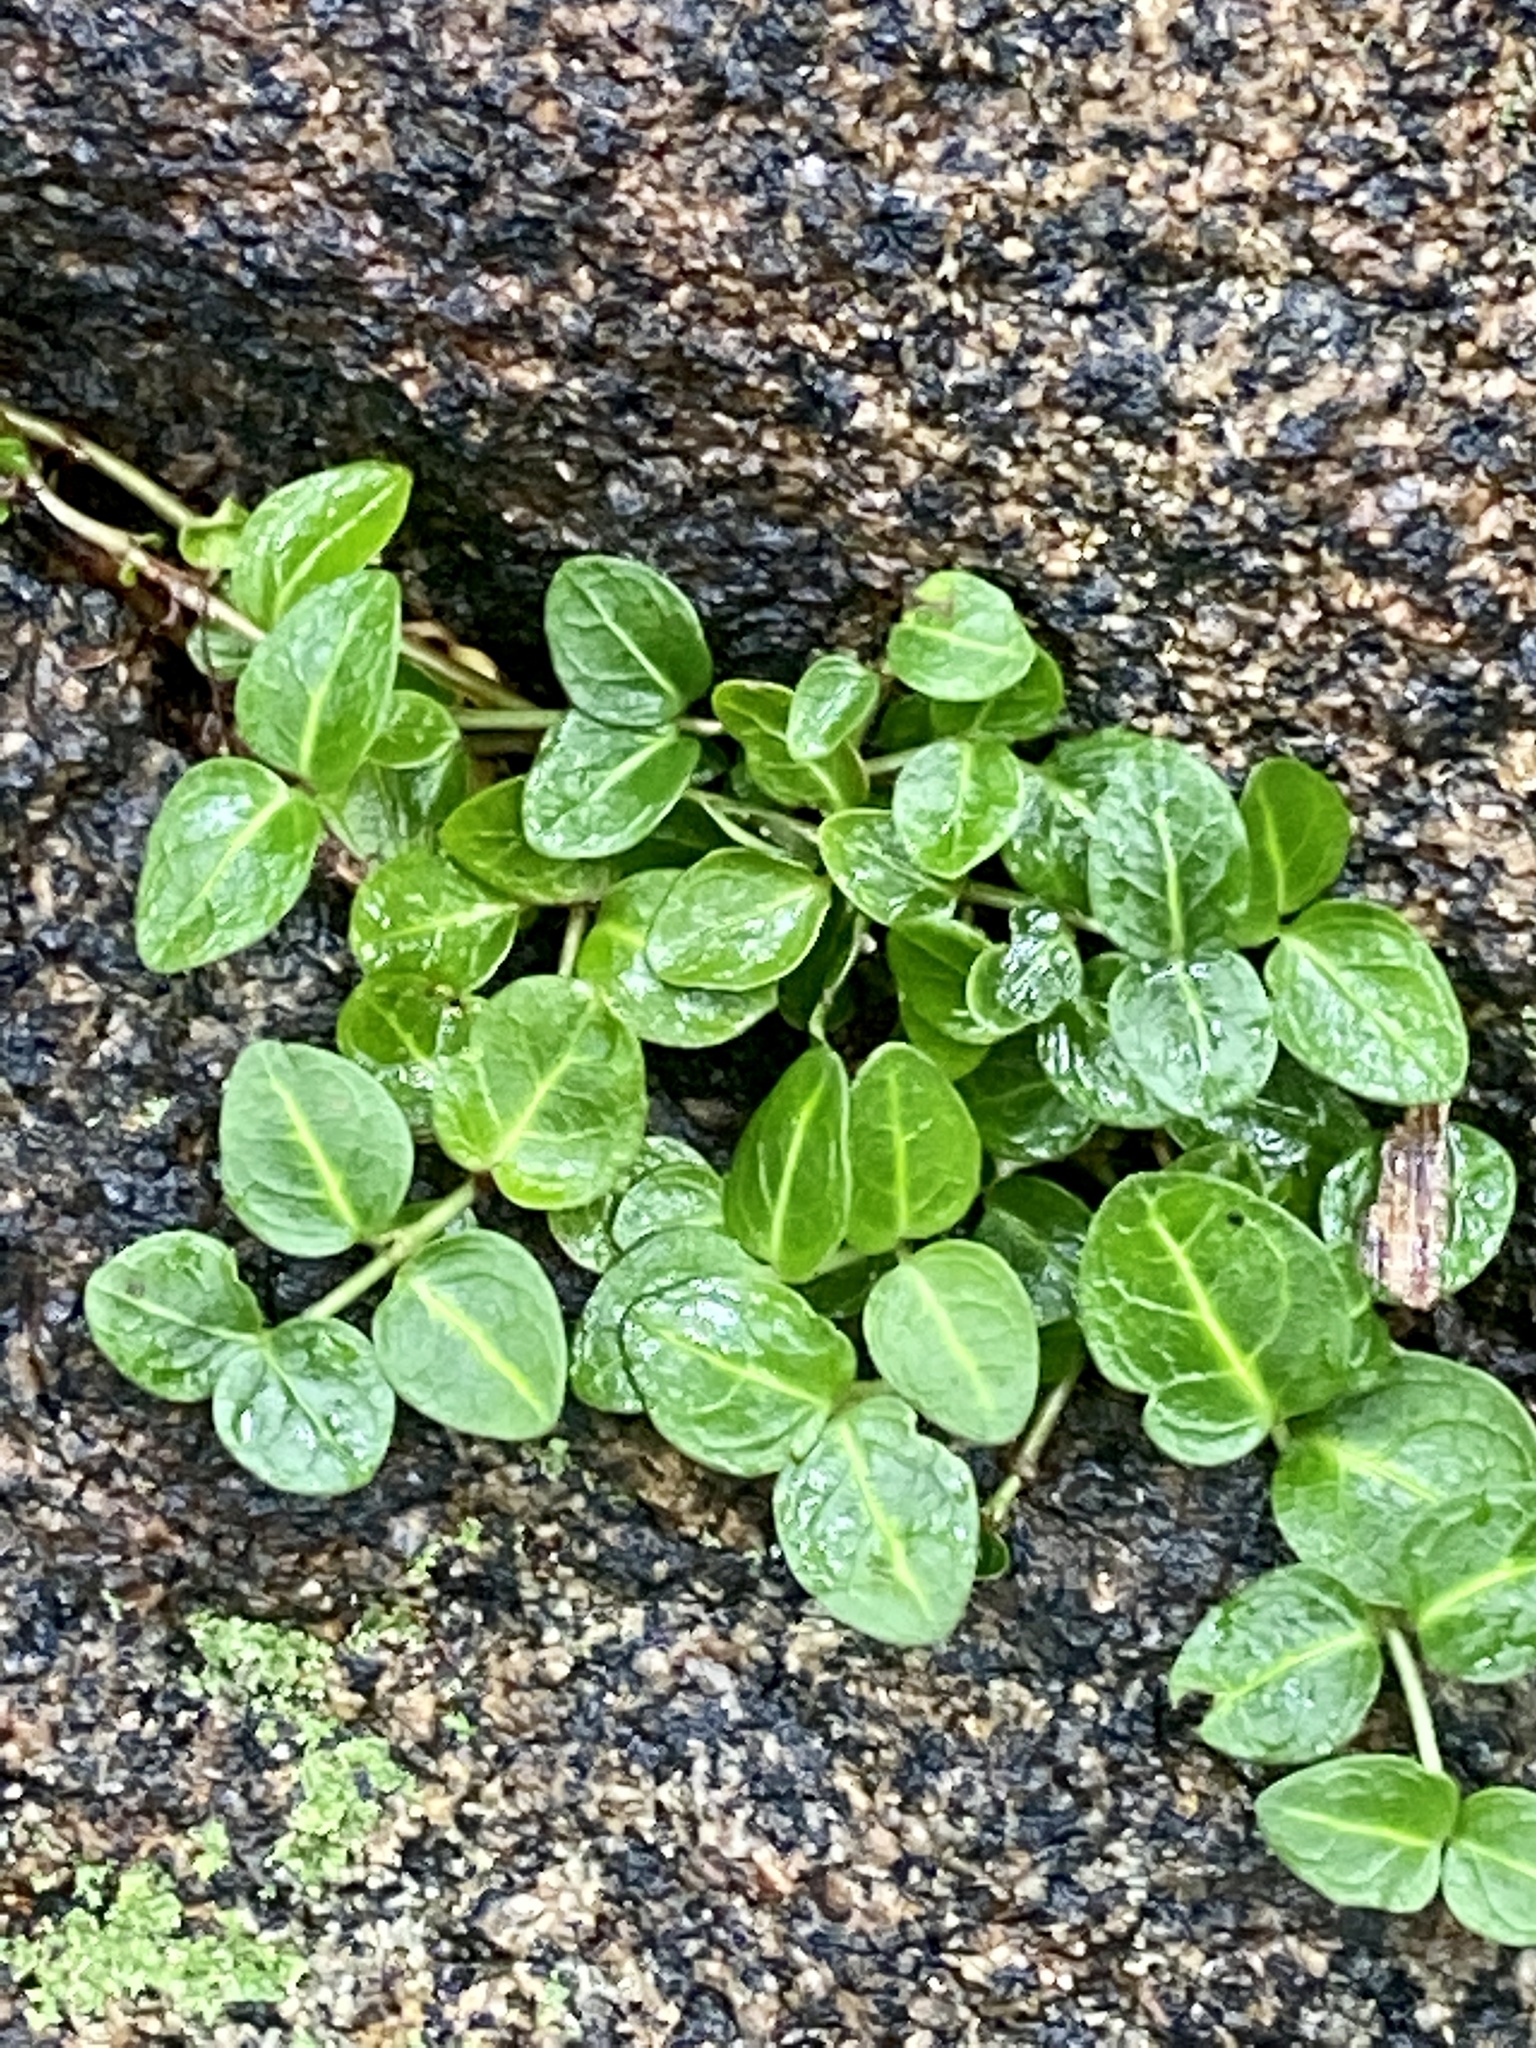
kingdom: Plantae
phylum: Tracheophyta
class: Magnoliopsida
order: Gentianales
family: Rubiaceae
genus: Mitchella
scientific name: Mitchella repens
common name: Partridge-berry
